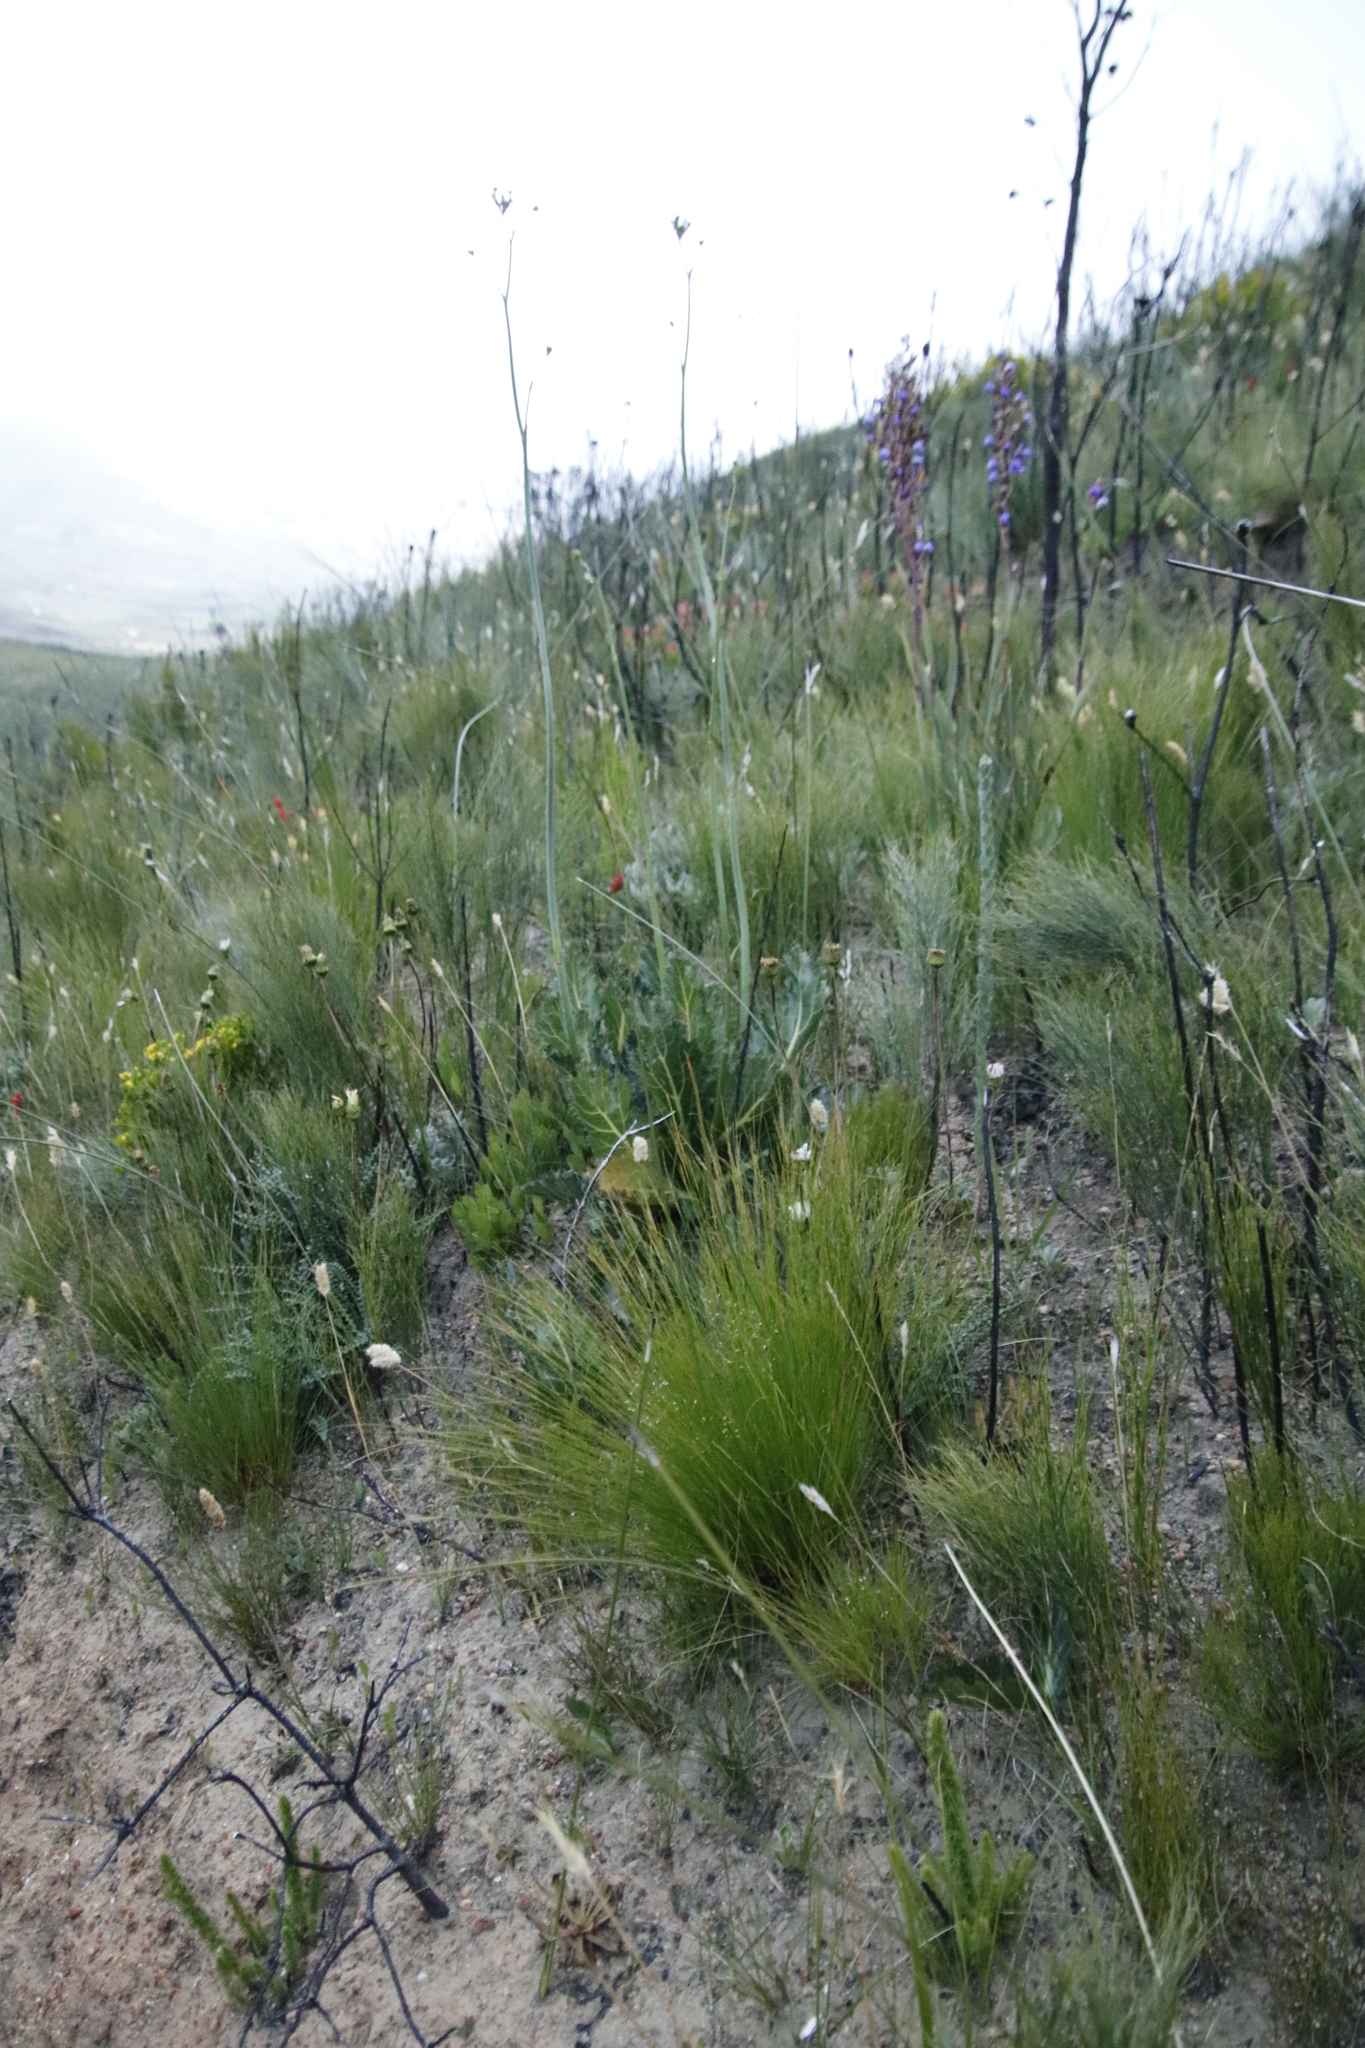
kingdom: Plantae
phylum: Tracheophyta
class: Magnoliopsida
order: Apiales
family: Apiaceae
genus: Lichtensteinia
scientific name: Lichtensteinia lacera
